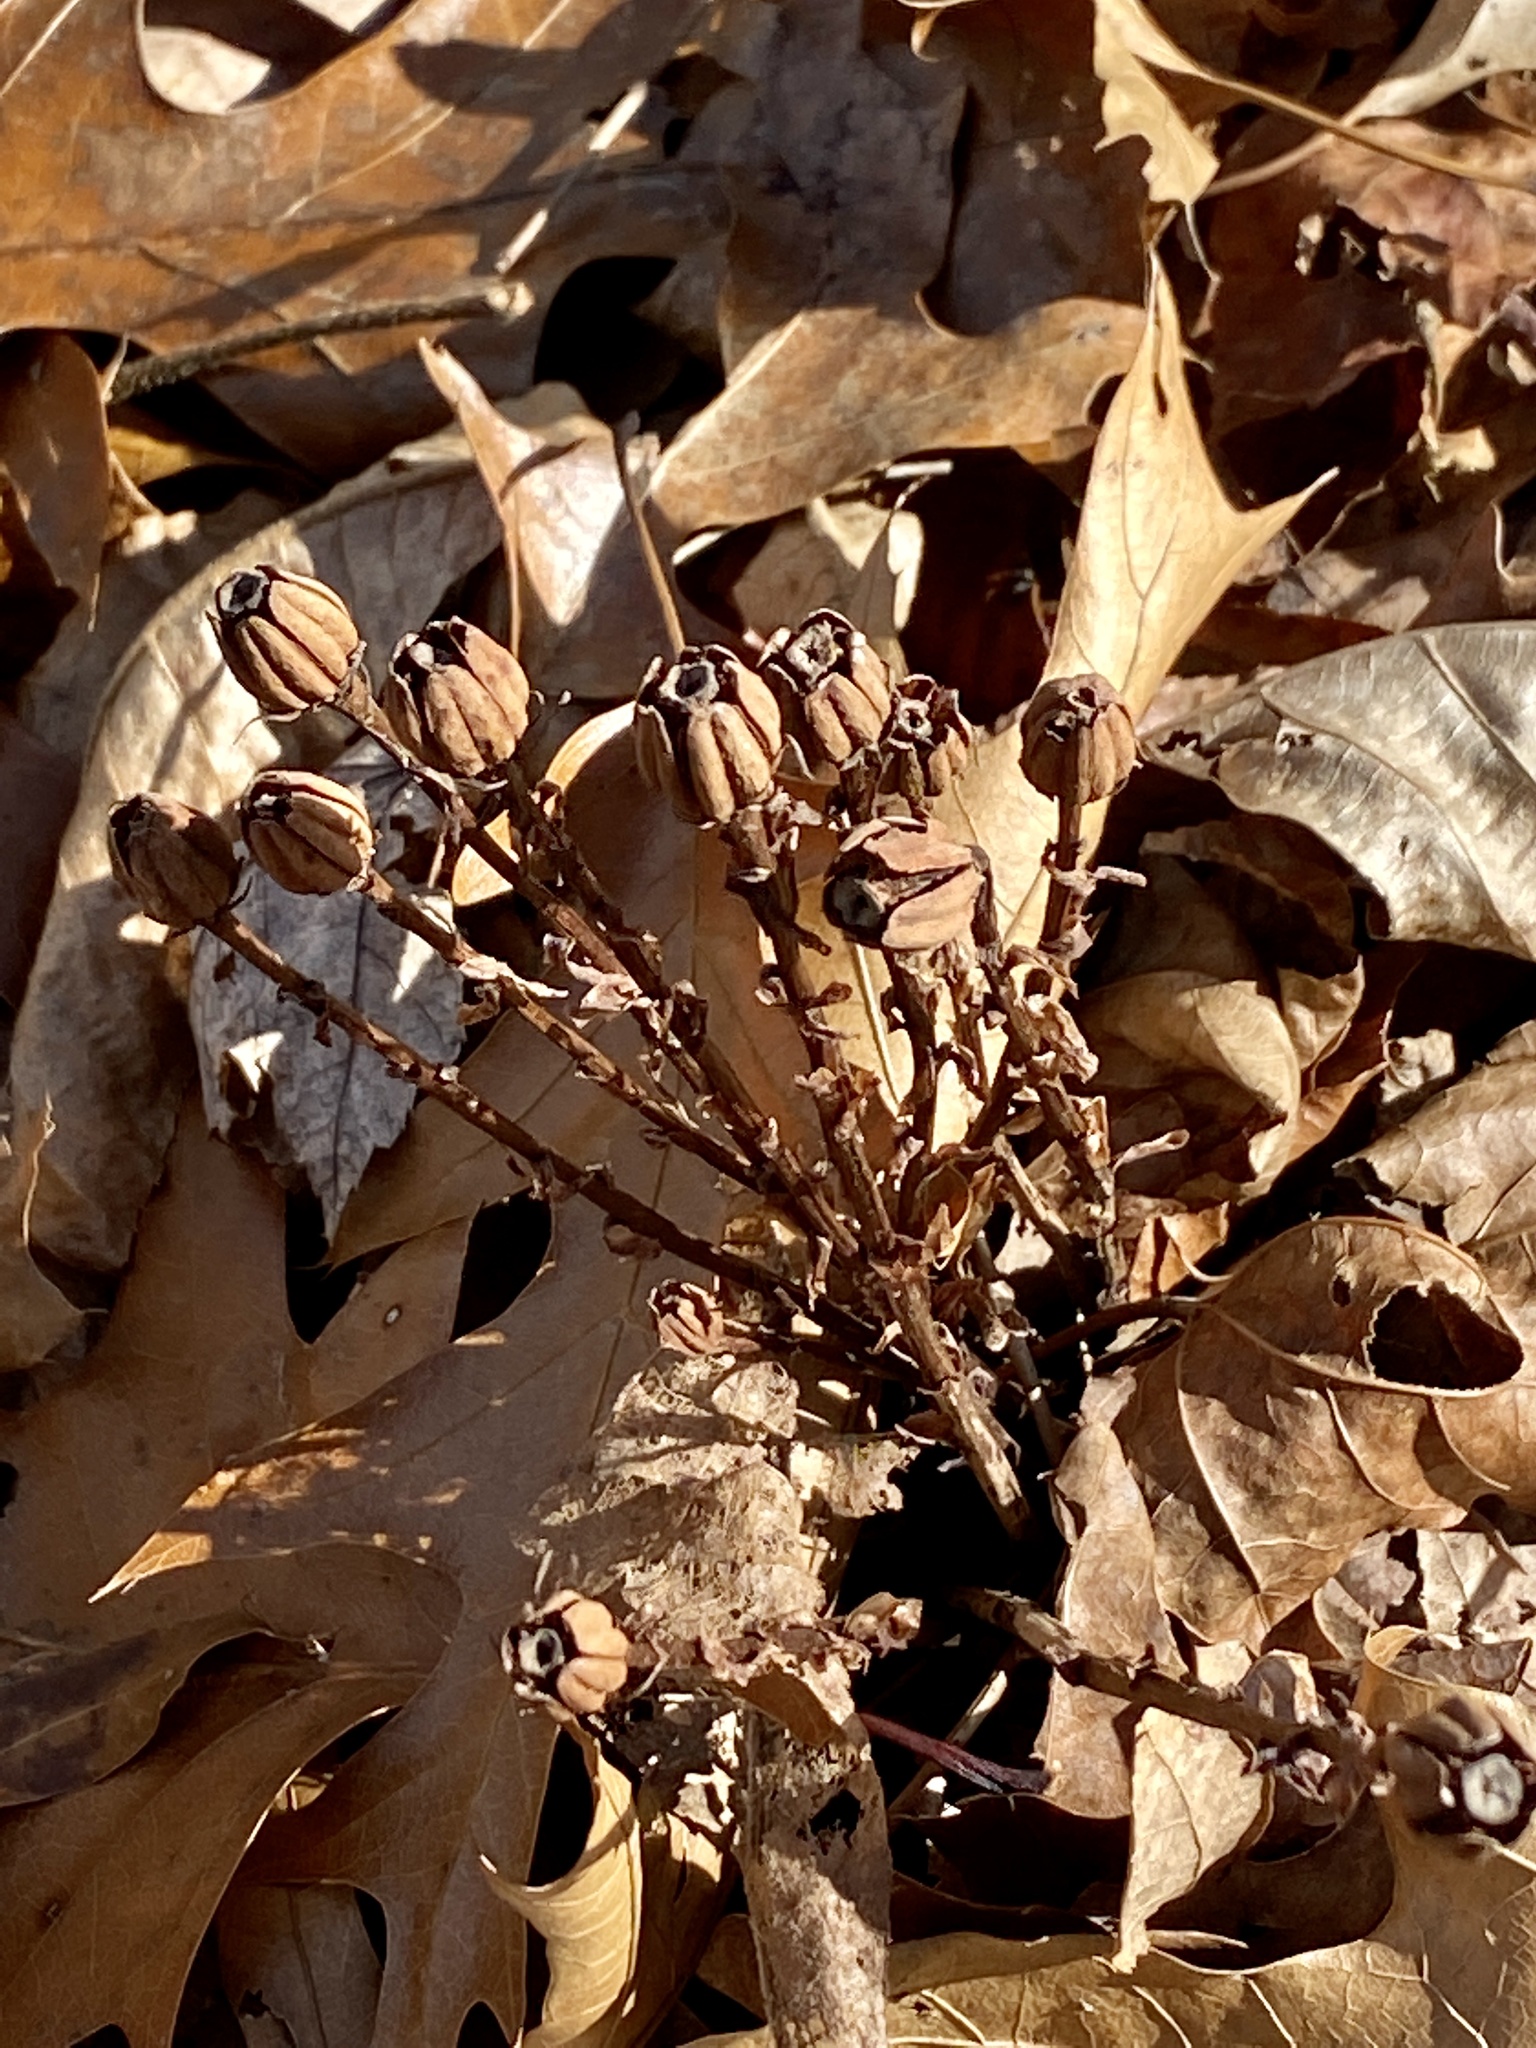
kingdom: Plantae
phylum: Tracheophyta
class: Magnoliopsida
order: Ericales
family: Ericaceae
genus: Monotropa
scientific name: Monotropa uniflora
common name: Convulsion root
